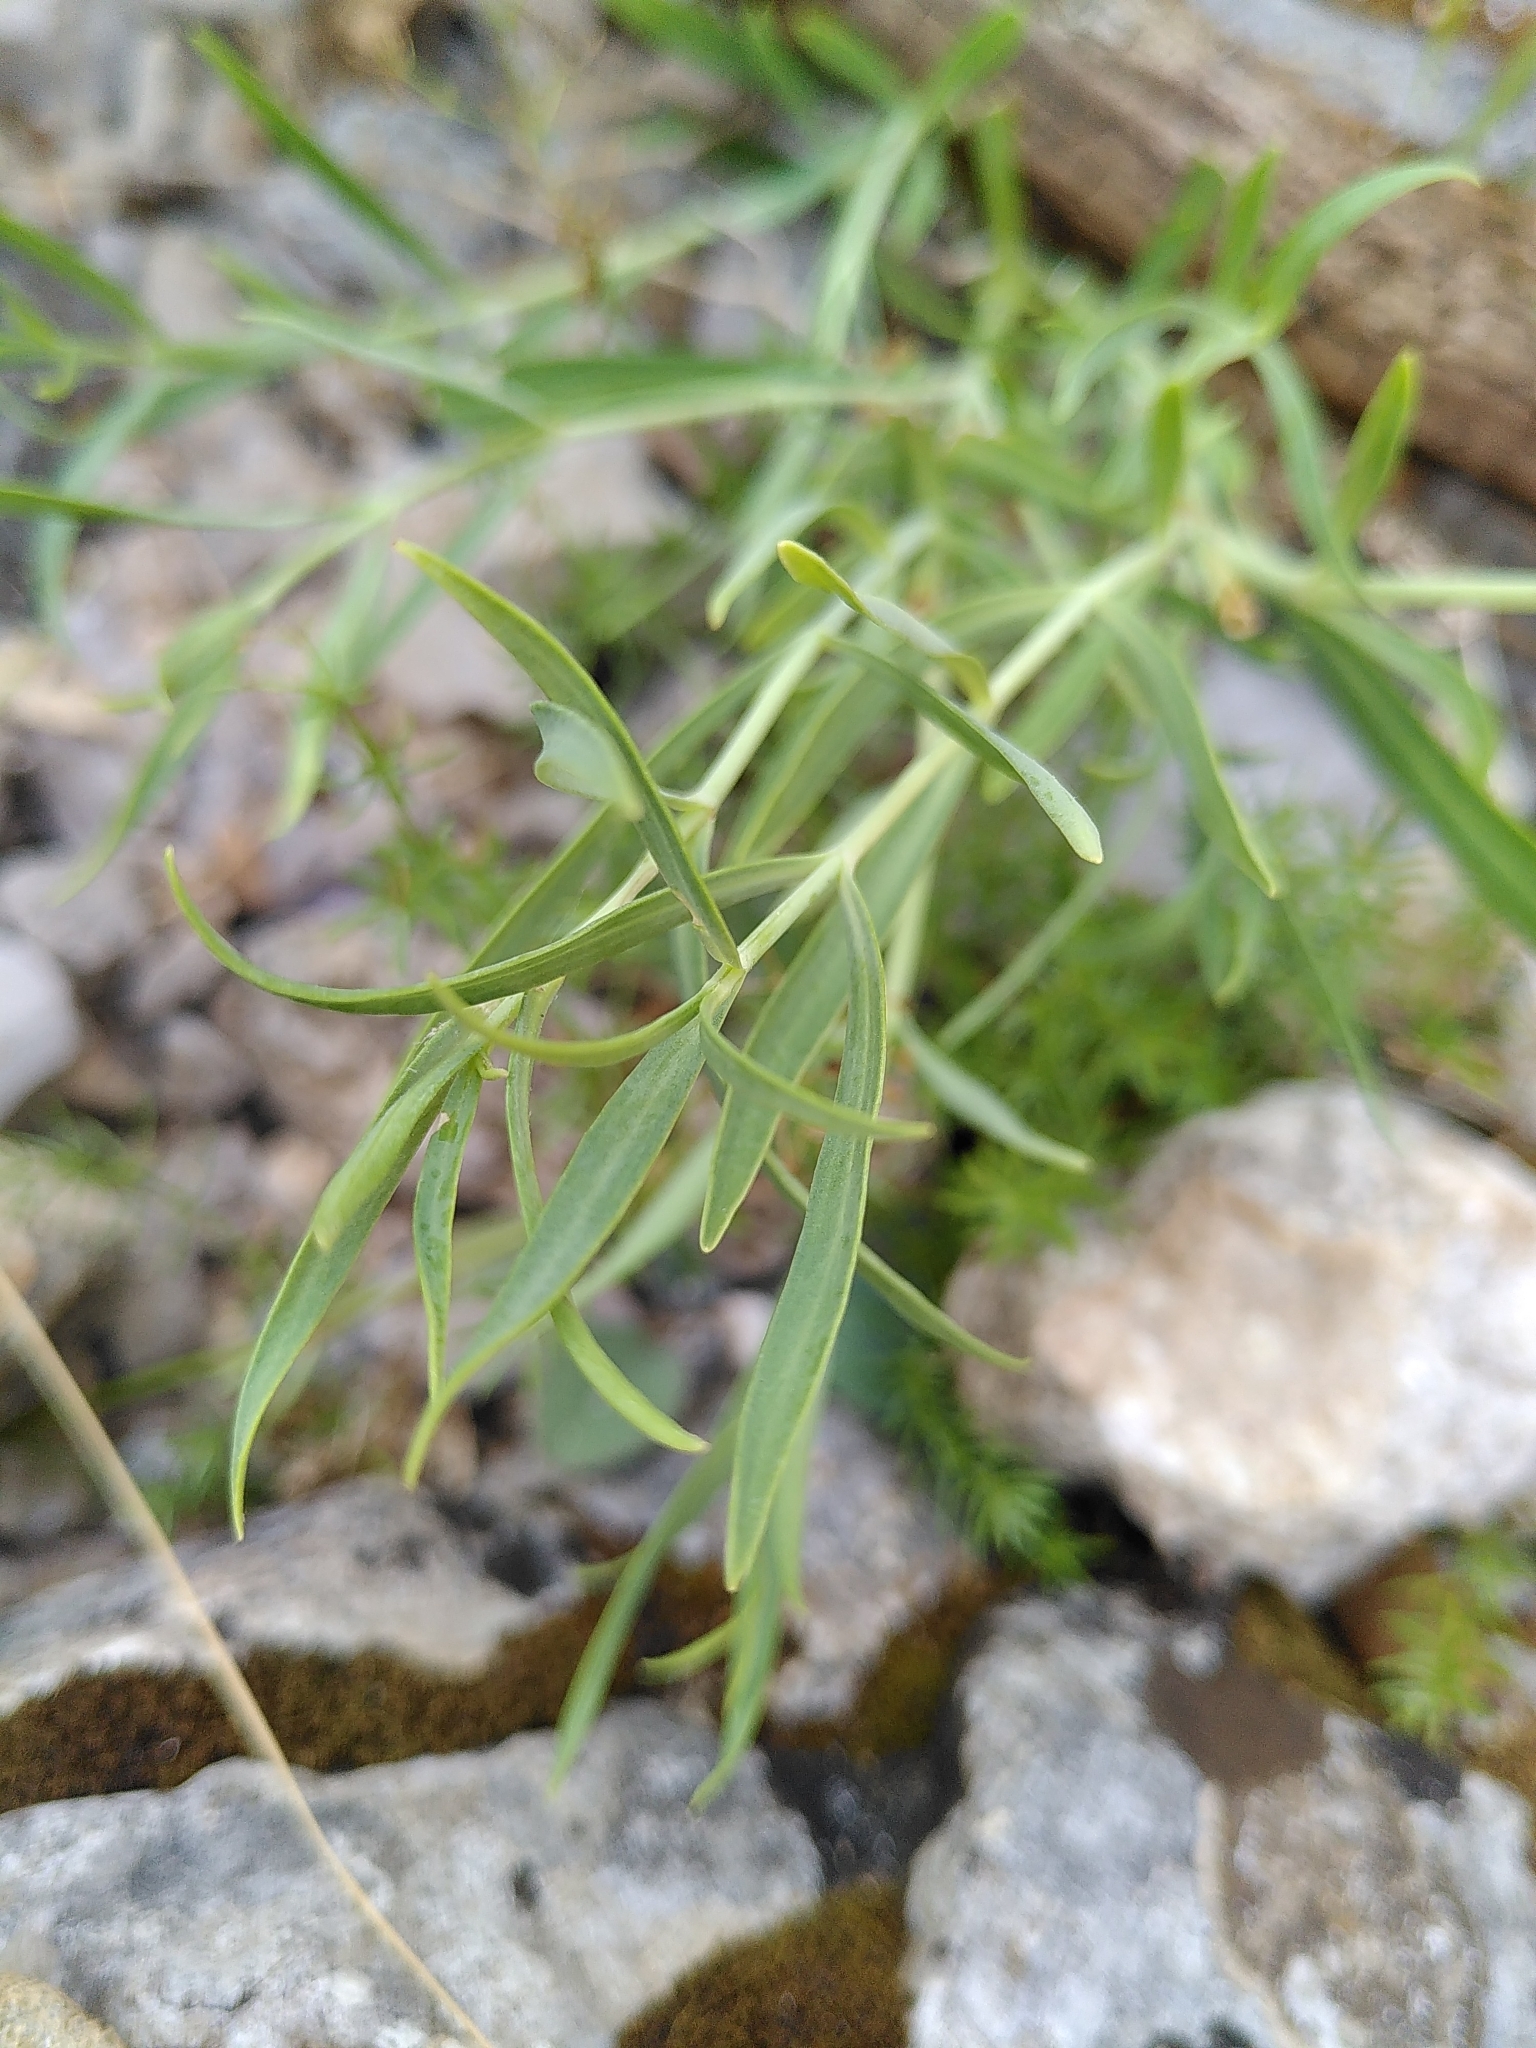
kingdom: Plantae
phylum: Tracheophyta
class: Magnoliopsida
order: Dipsacales
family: Caprifoliaceae
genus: Centranthus
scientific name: Centranthus lecoqii
